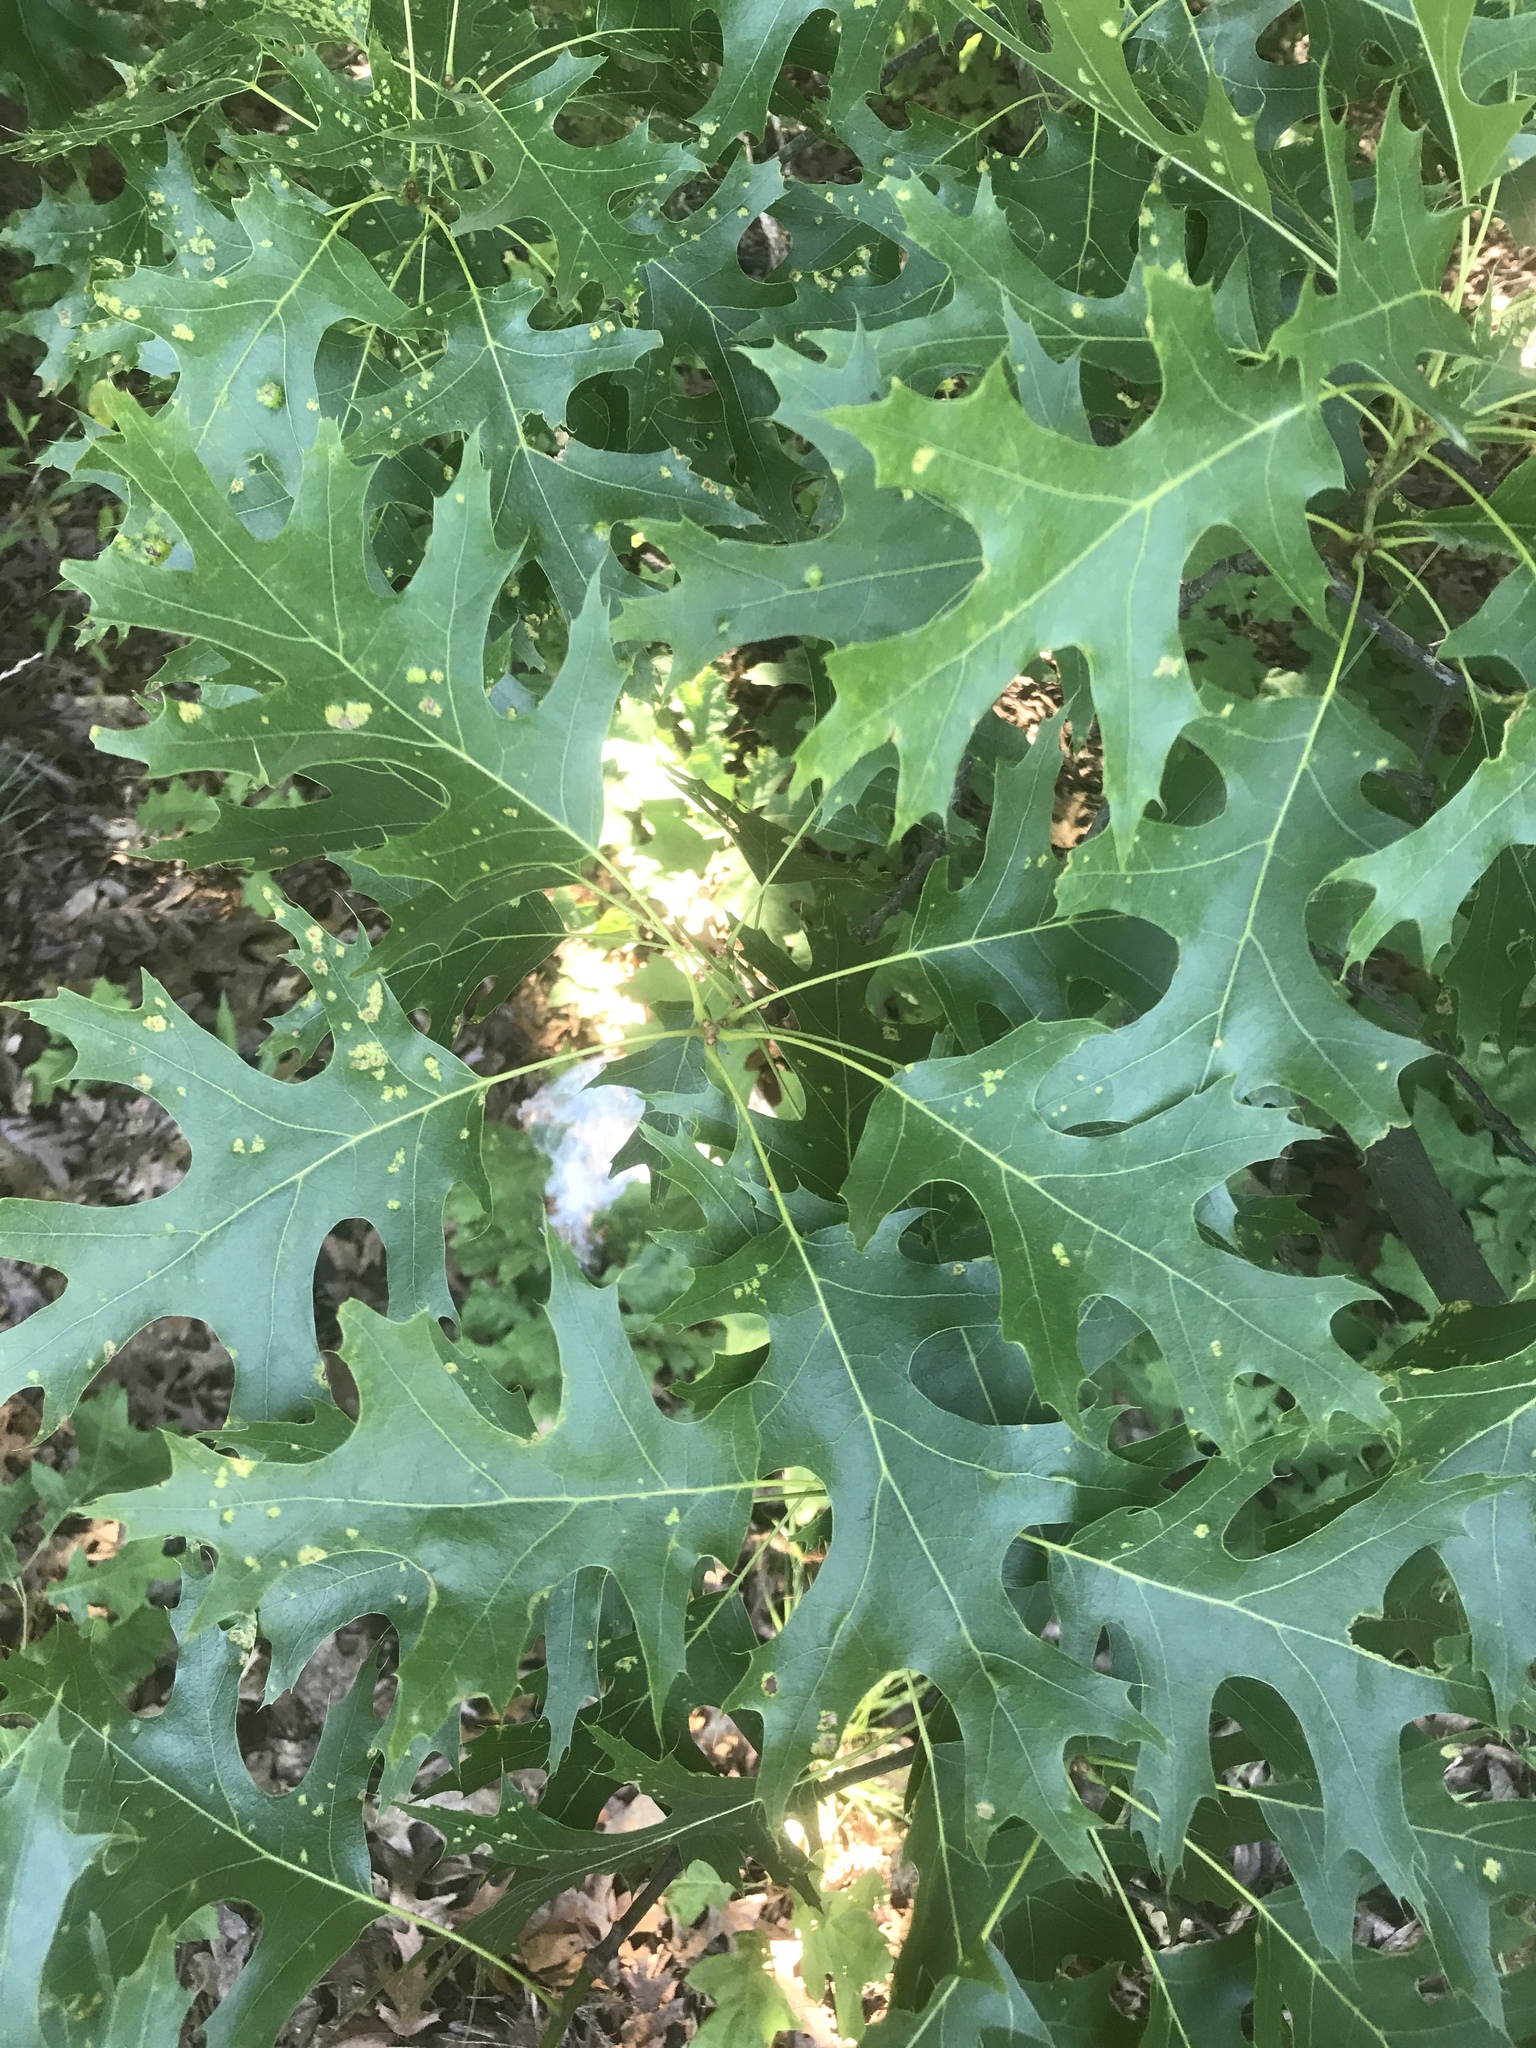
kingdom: Plantae
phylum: Tracheophyta
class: Magnoliopsida
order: Fagales
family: Fagaceae
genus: Quercus
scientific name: Quercus coccinea
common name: Scarlet oak
